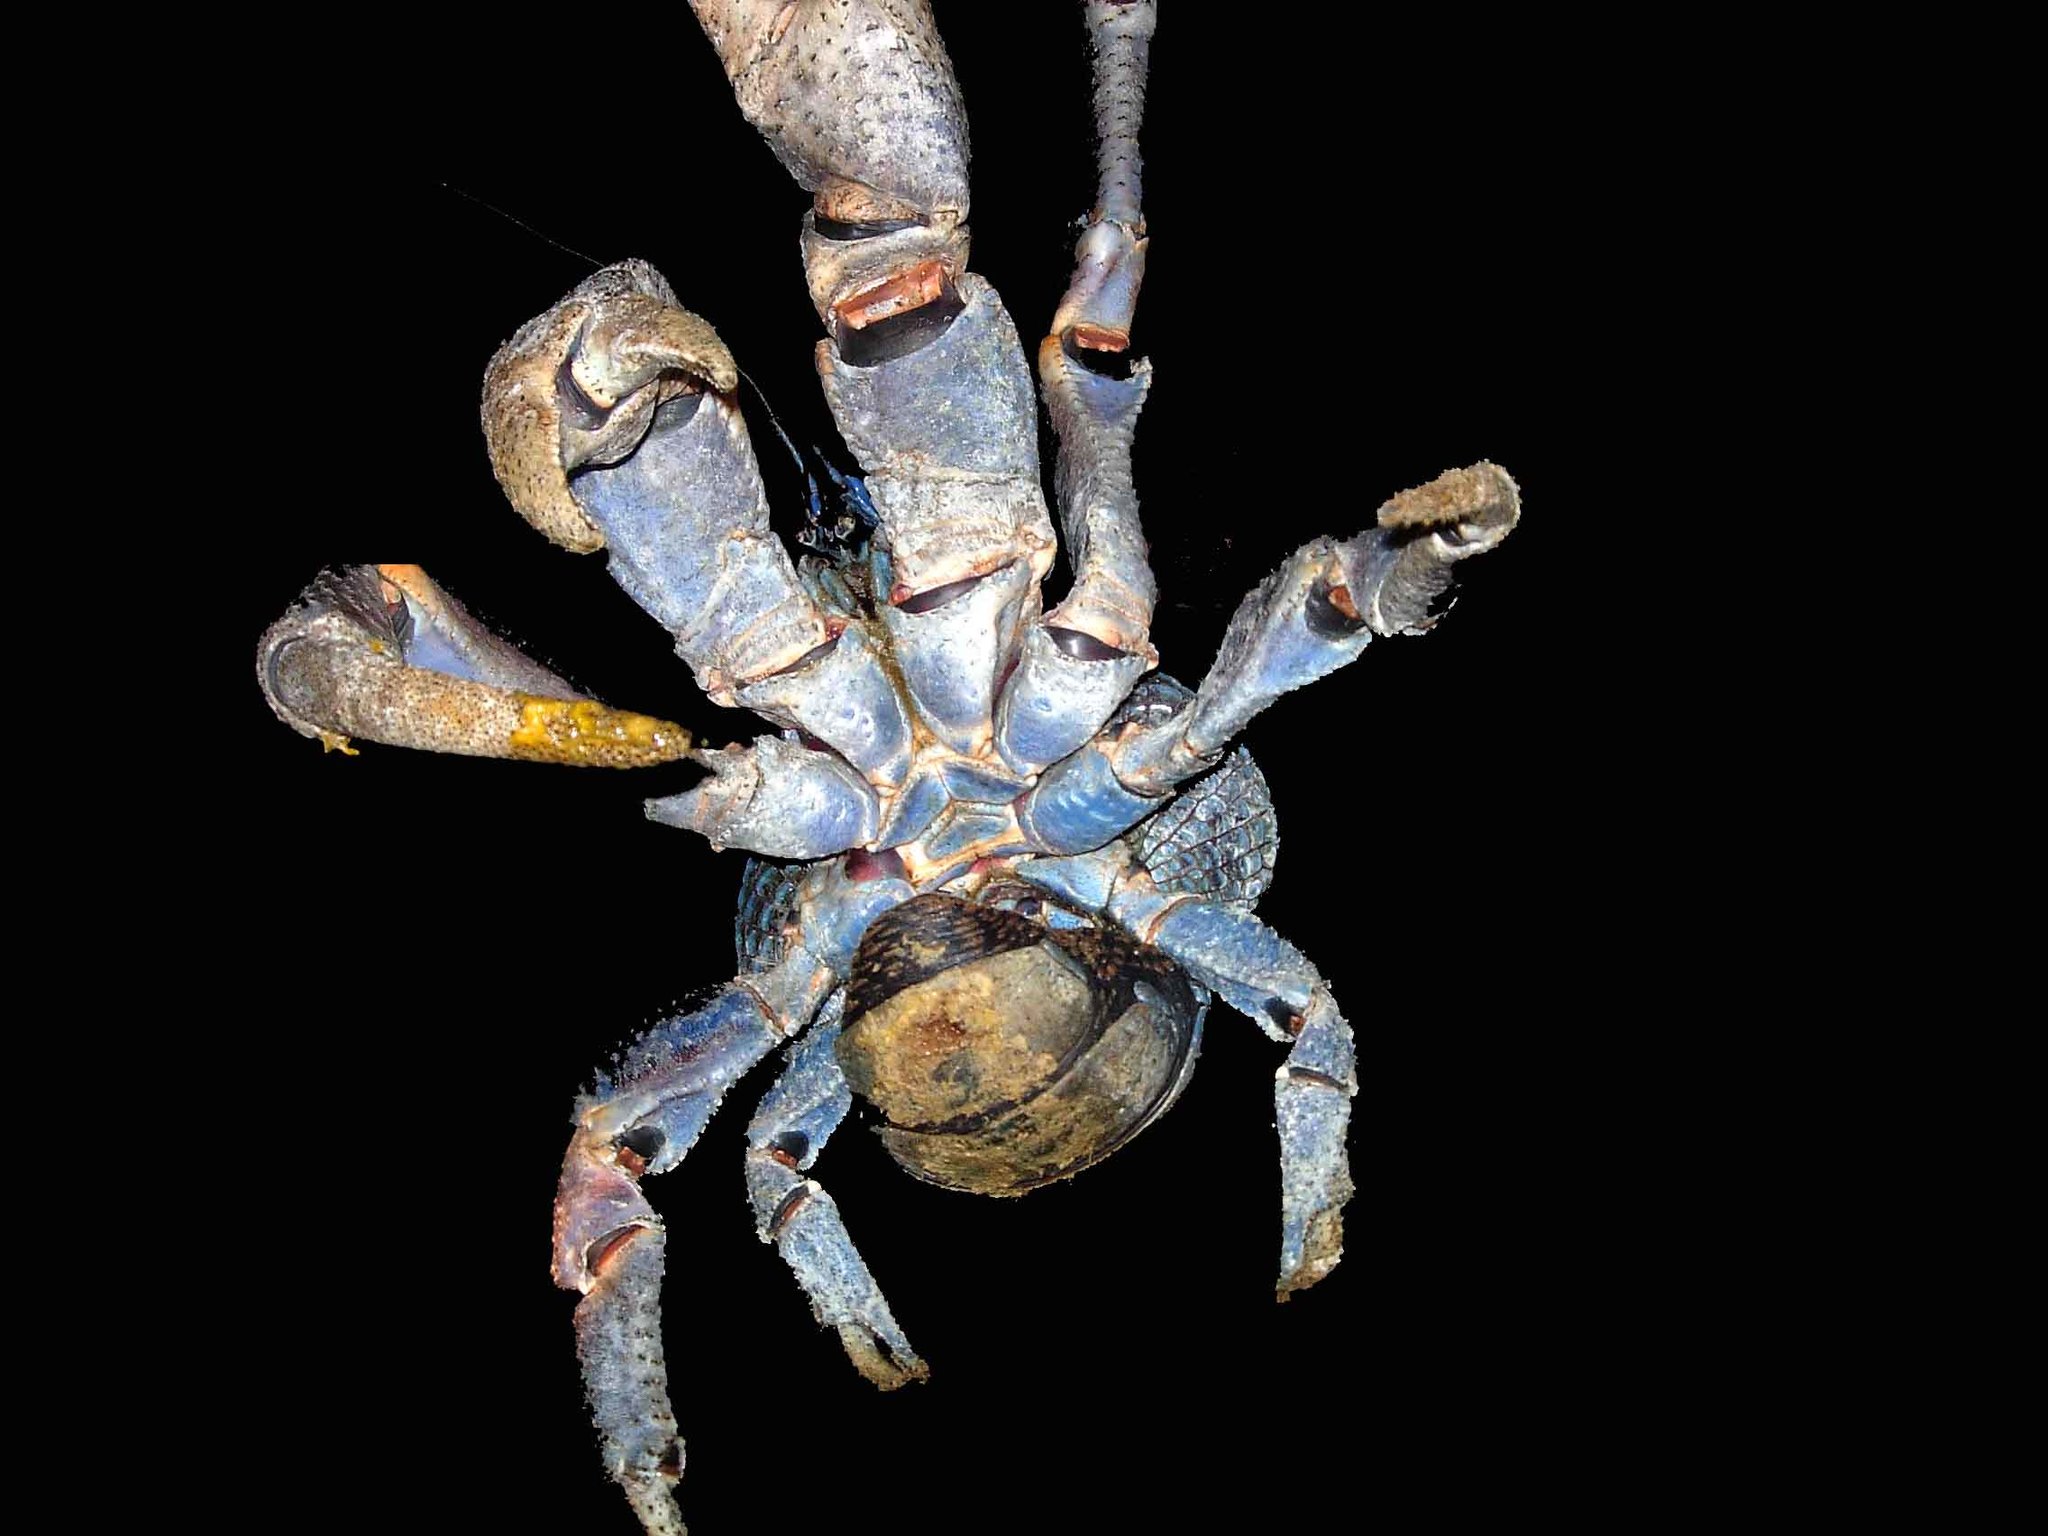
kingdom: Animalia
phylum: Arthropoda
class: Malacostraca
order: Decapoda
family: Coenobitidae
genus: Birgus
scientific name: Birgus latro
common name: Coconut crab
